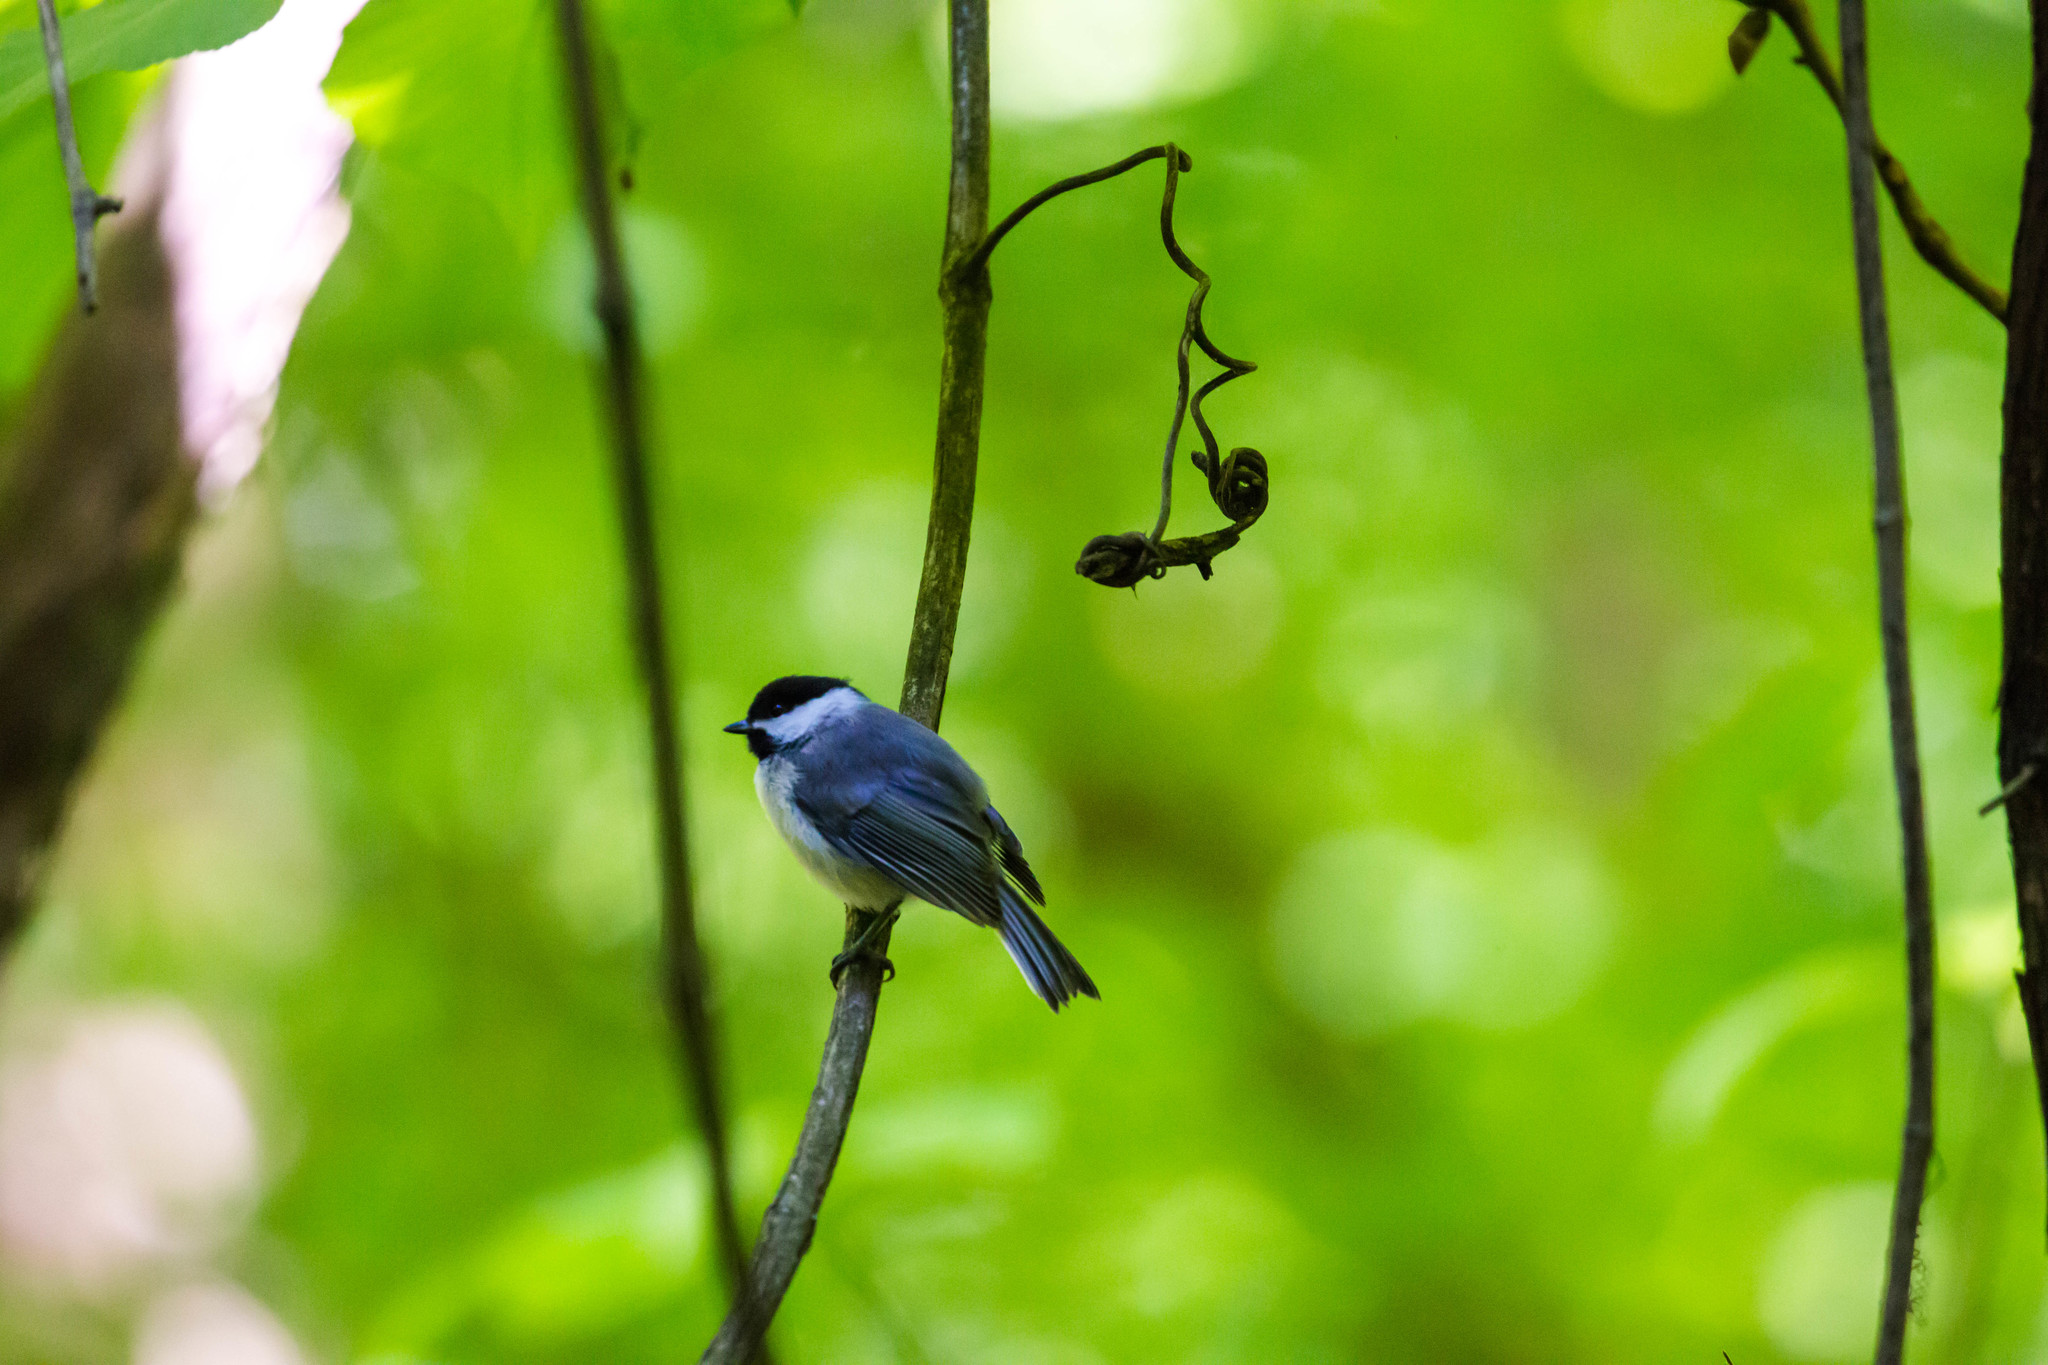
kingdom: Animalia
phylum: Chordata
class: Aves
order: Passeriformes
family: Paridae
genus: Poecile
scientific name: Poecile carolinensis
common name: Carolina chickadee
